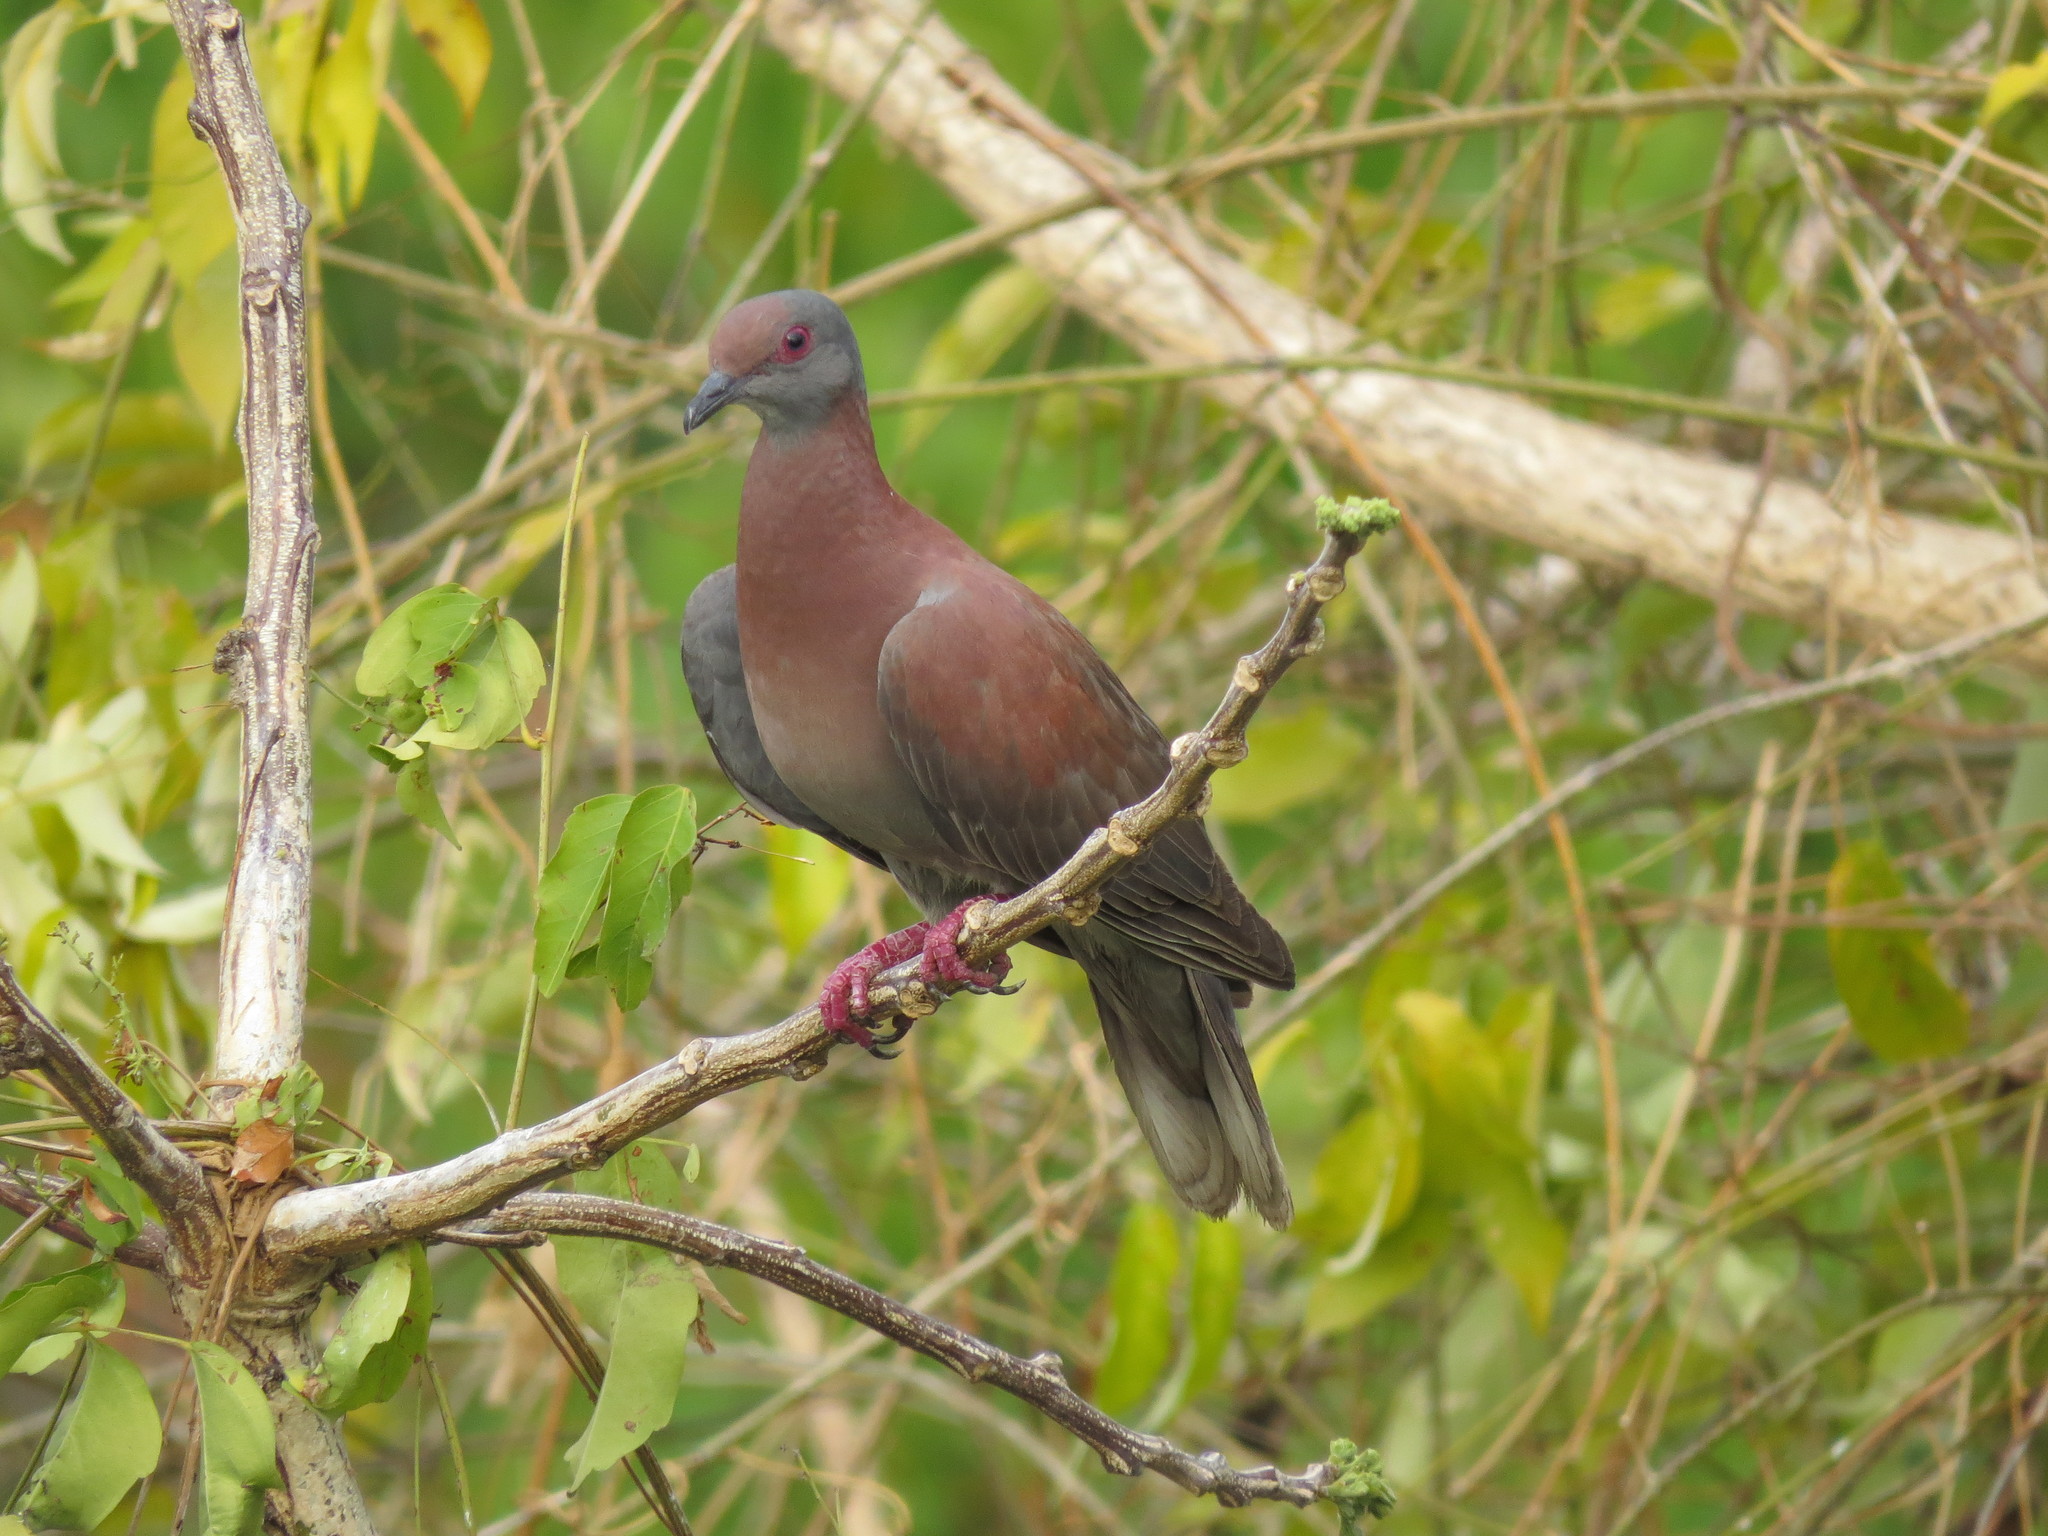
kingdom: Animalia
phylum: Chordata
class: Aves
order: Columbiformes
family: Columbidae
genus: Patagioenas
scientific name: Patagioenas cayennensis
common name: Pale-vented pigeon
